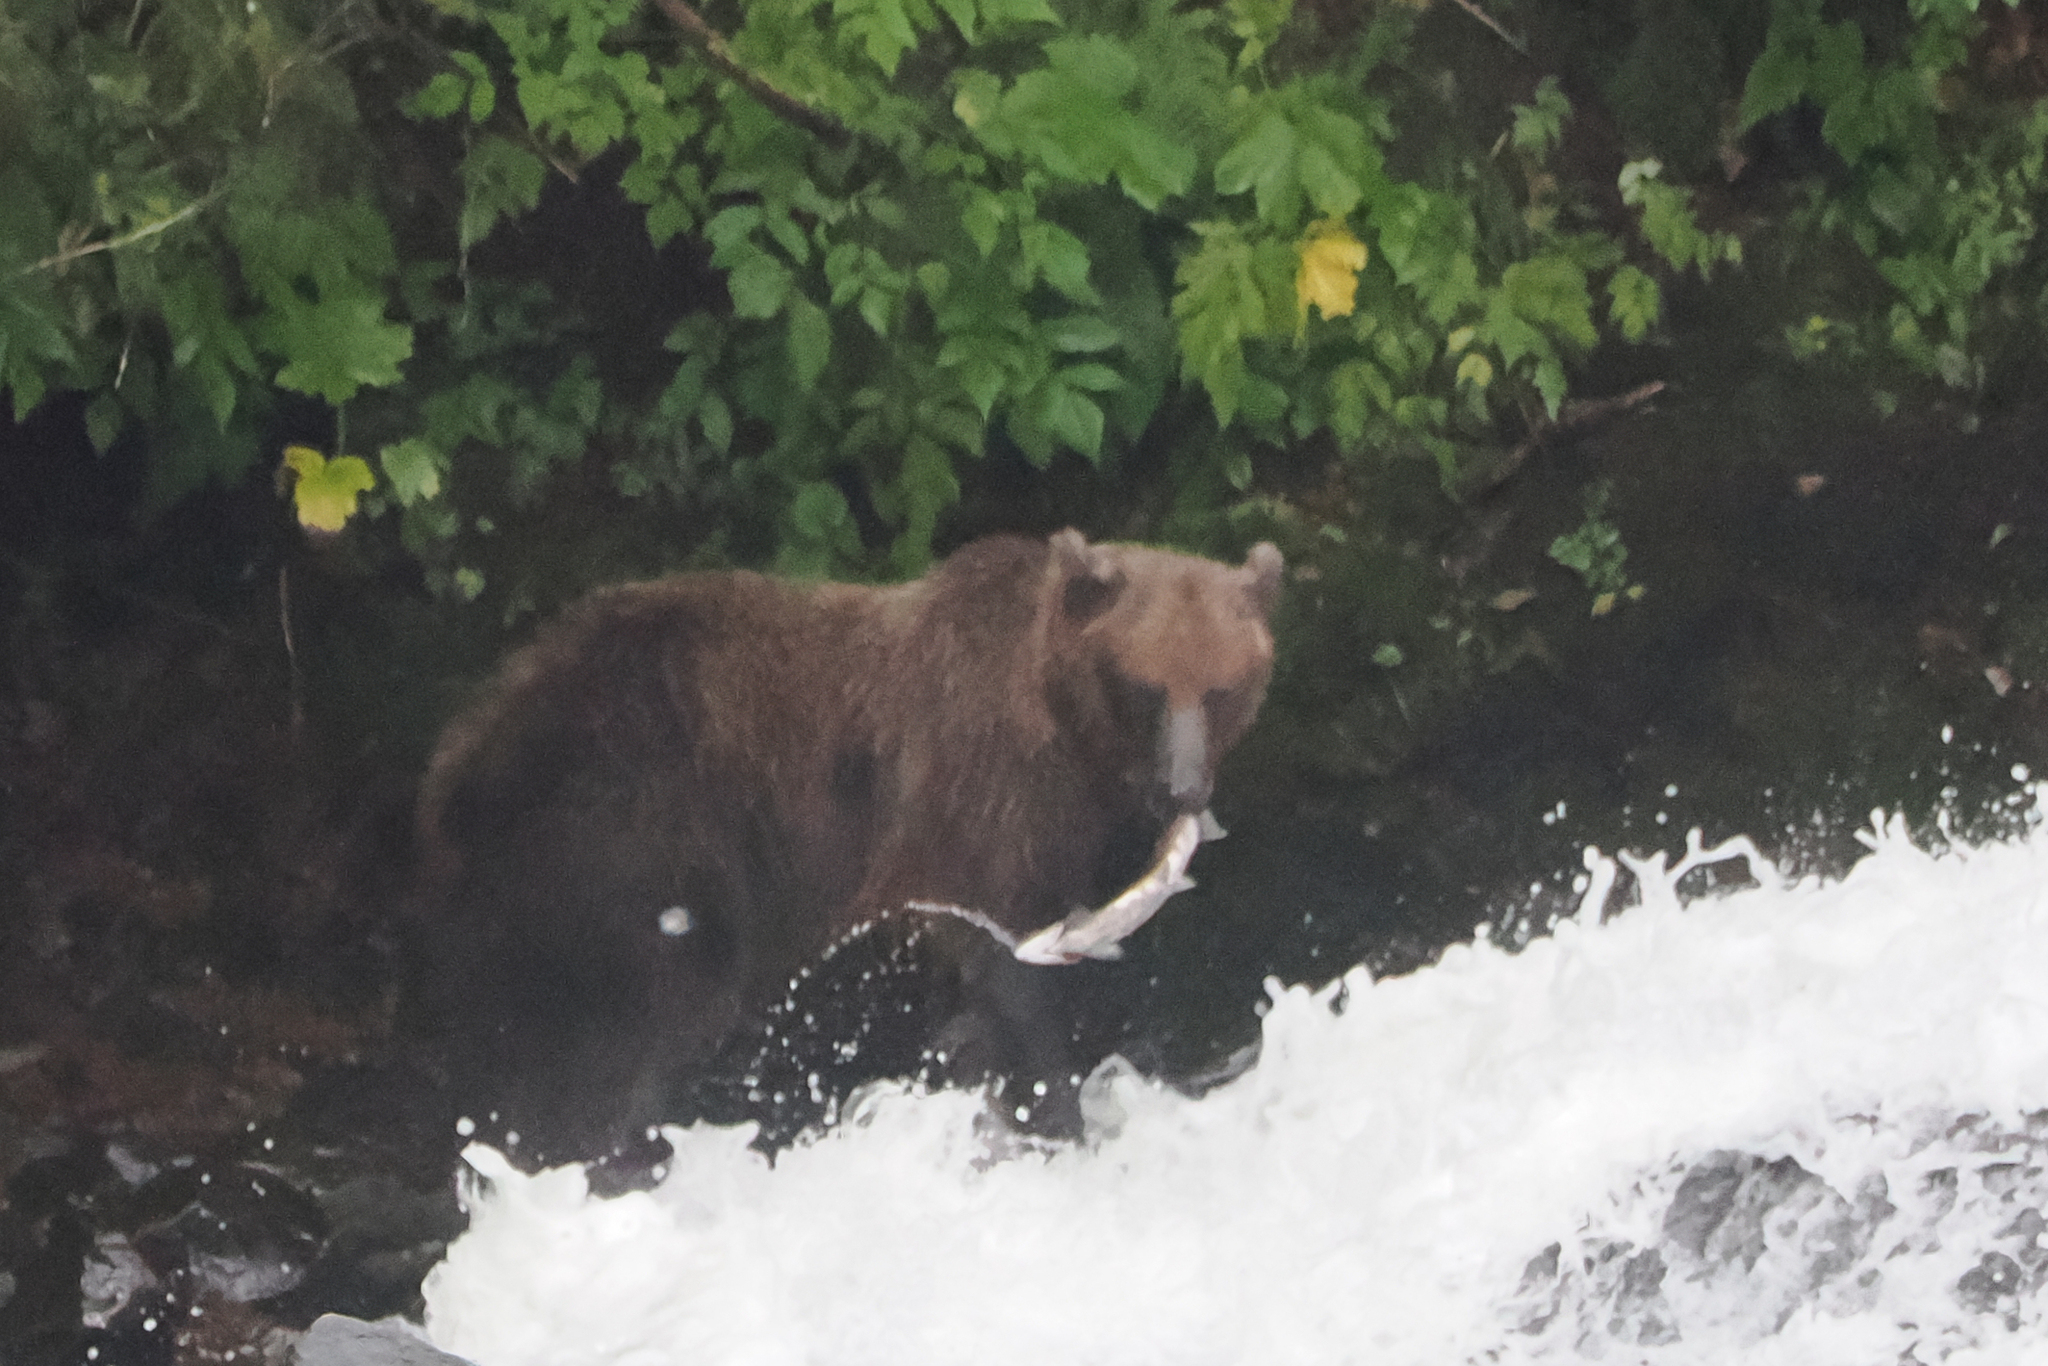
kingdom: Animalia
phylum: Chordata
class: Mammalia
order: Carnivora
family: Ursidae
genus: Ursus
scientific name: Ursus arctos
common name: Brown bear
